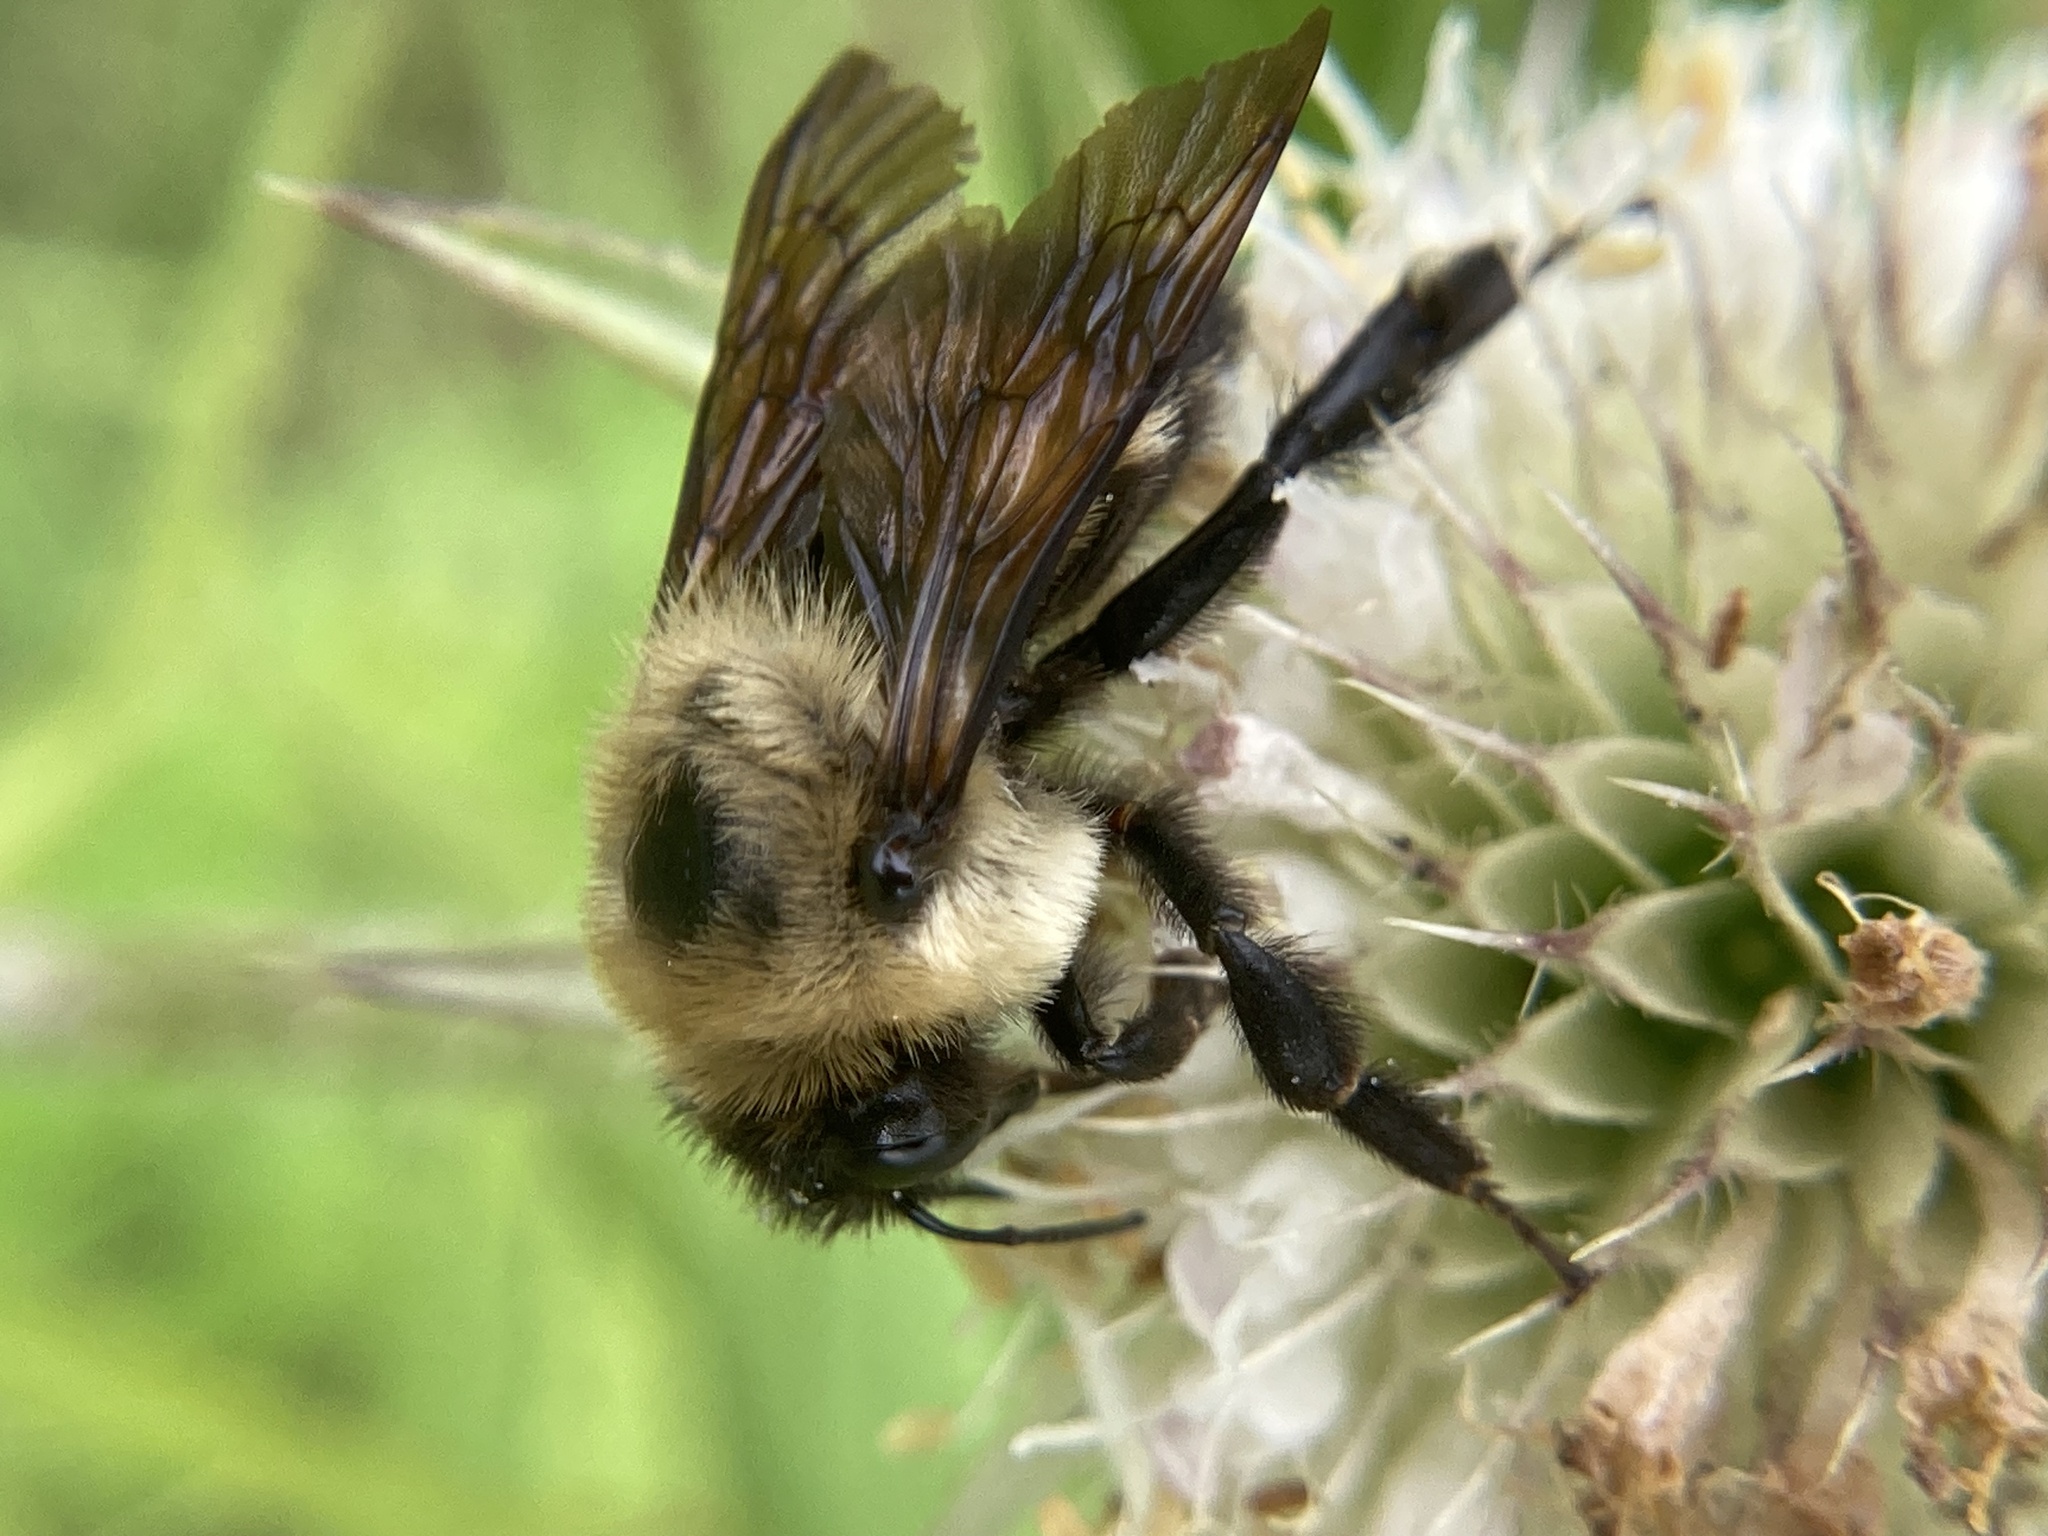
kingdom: Animalia
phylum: Arthropoda
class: Insecta
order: Hymenoptera
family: Apidae
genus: Bombus
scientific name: Bombus griseocollis
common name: Brown-belted bumble bee
